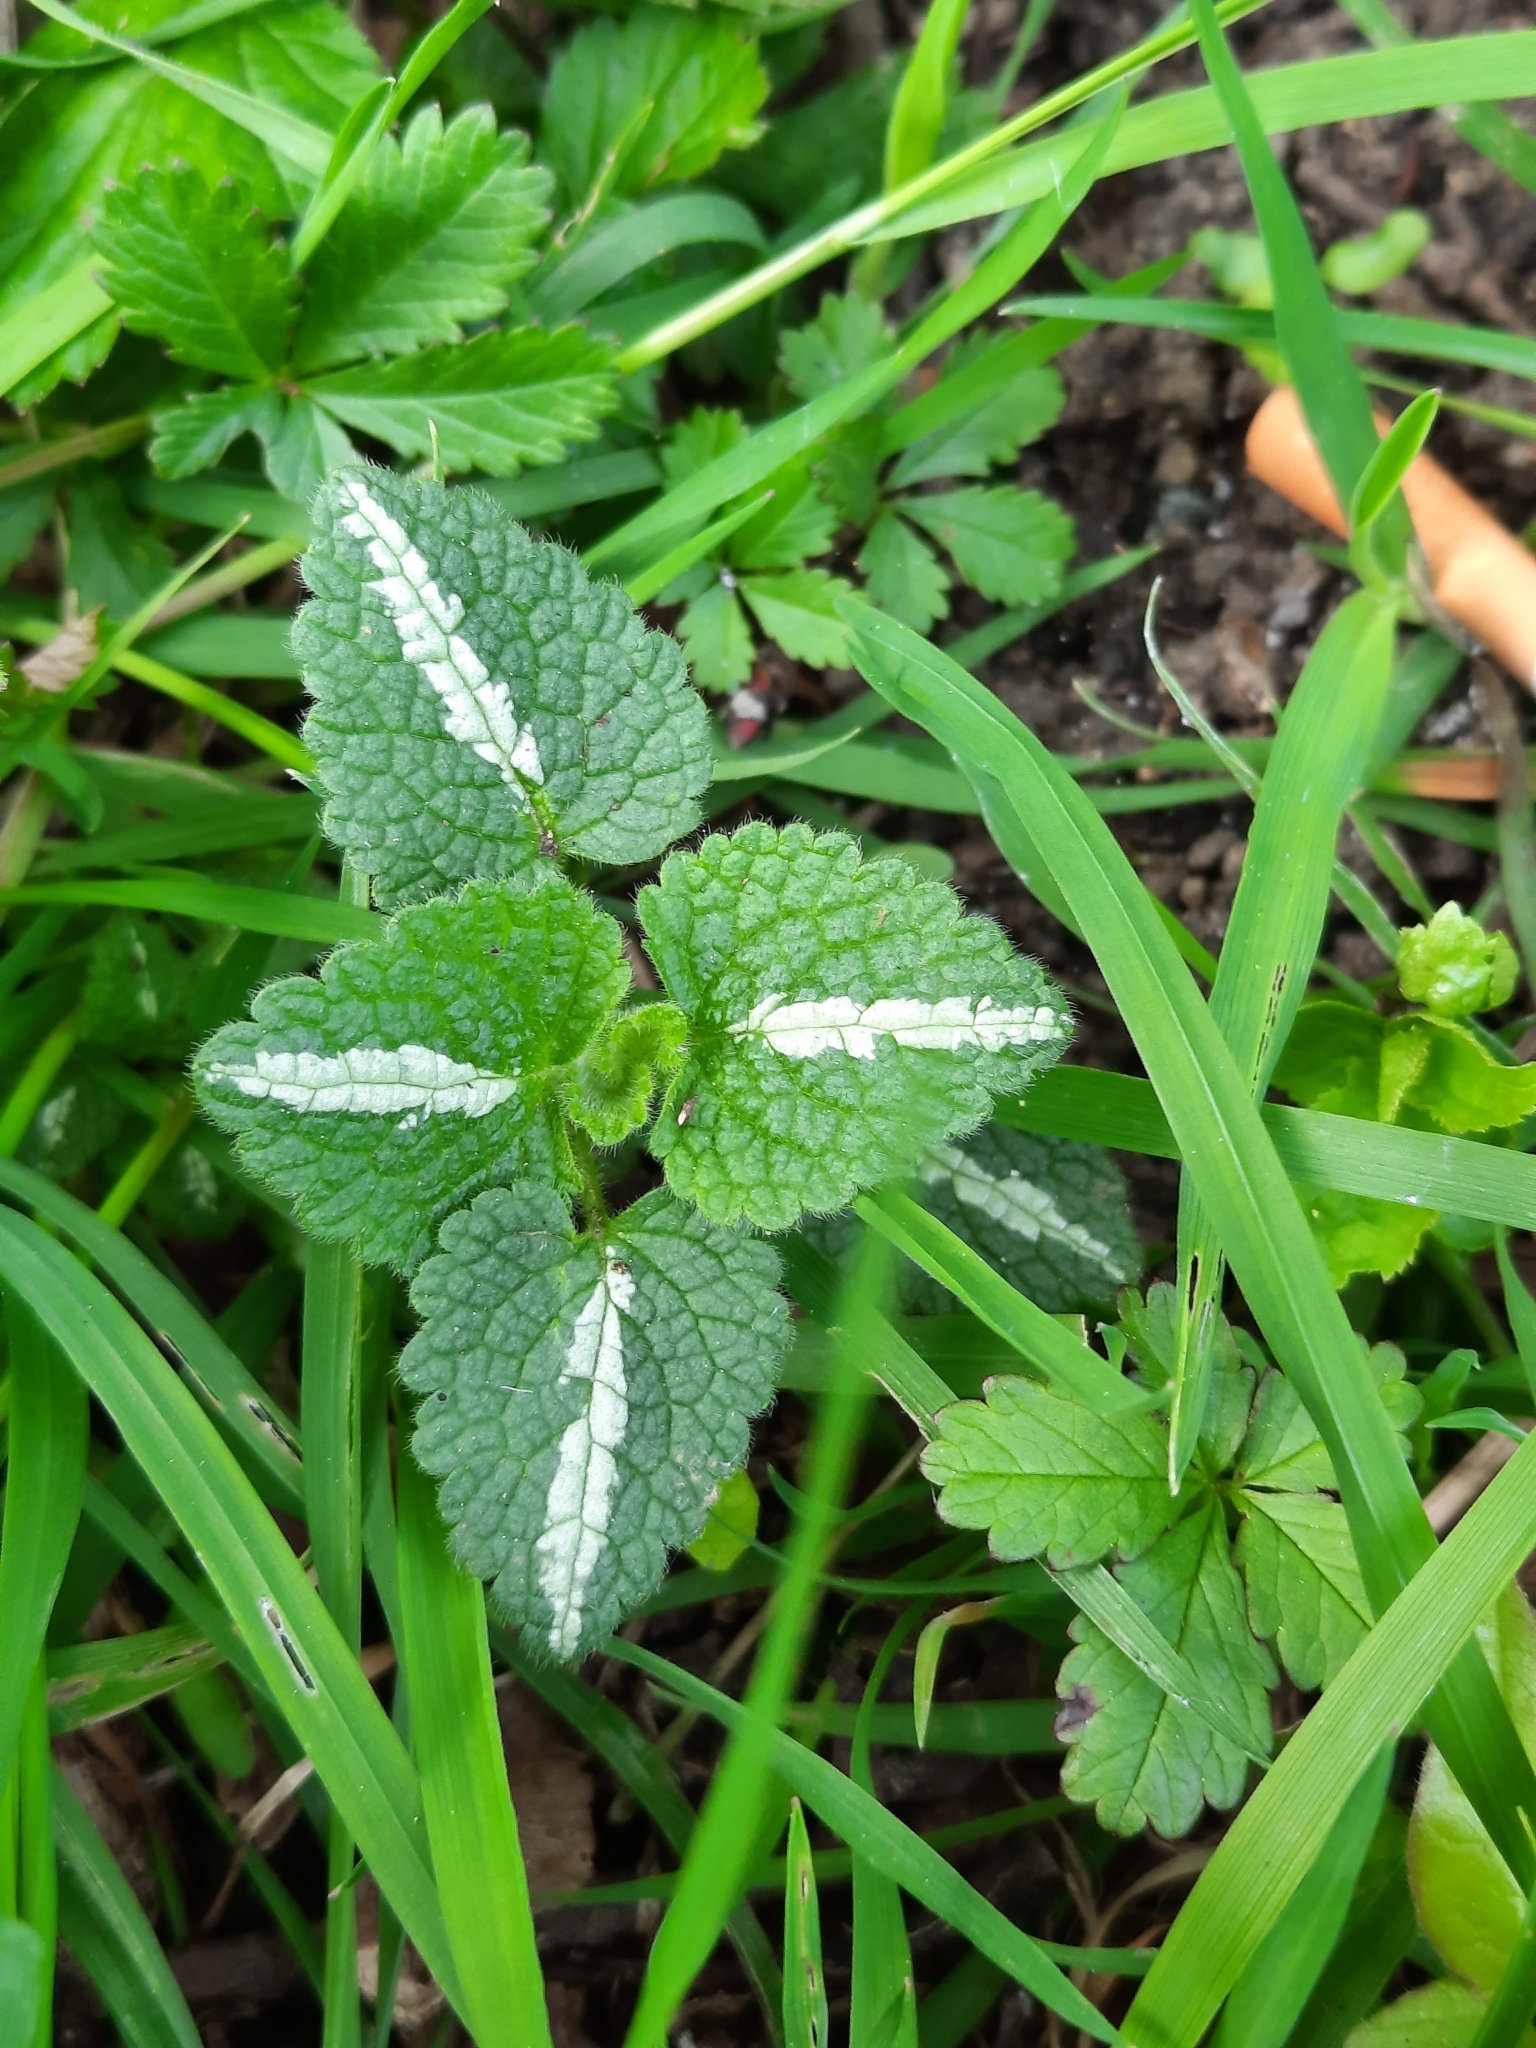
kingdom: Plantae
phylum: Tracheophyta
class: Magnoliopsida
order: Lamiales
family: Lamiaceae
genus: Lamium
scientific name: Lamium maculatum
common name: Spotted dead-nettle
